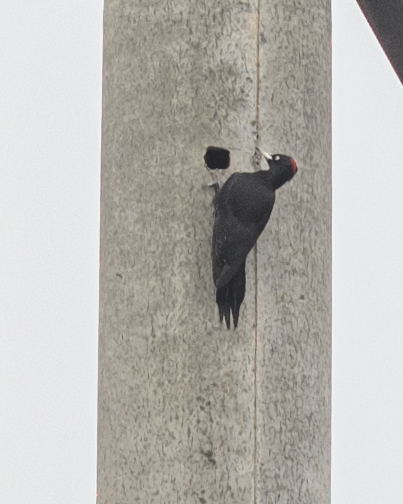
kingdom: Animalia
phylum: Chordata
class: Aves
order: Piciformes
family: Picidae
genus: Dryocopus
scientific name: Dryocopus martius
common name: Black woodpecker
